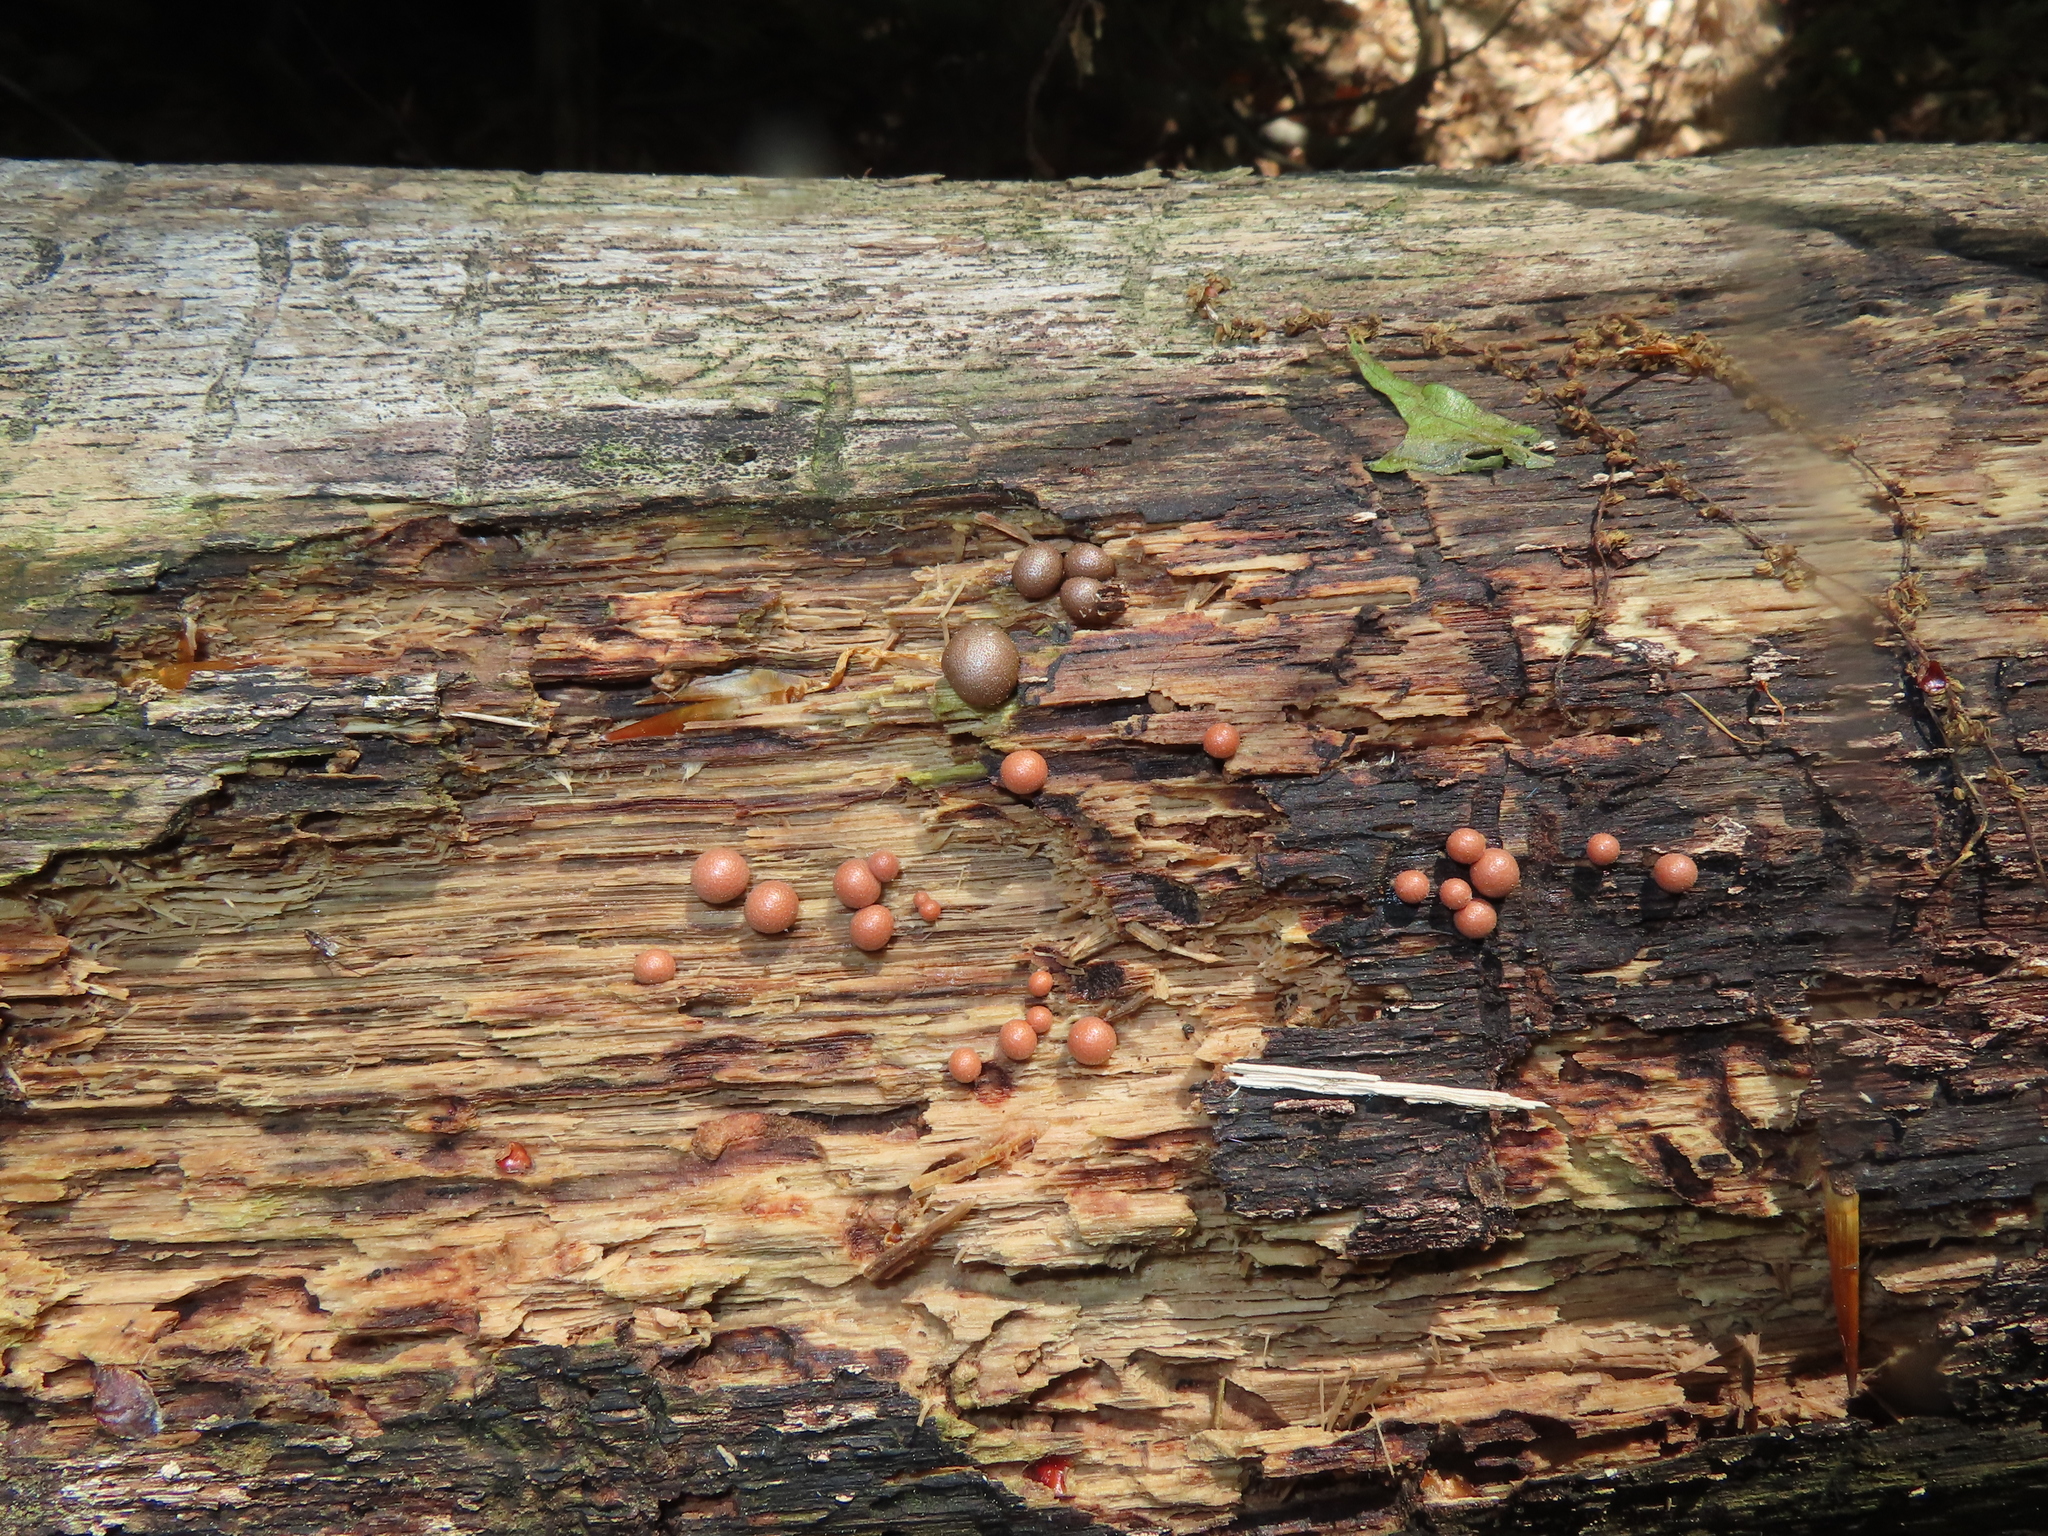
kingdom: Protozoa
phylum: Mycetozoa
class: Myxomycetes
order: Cribrariales
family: Tubiferaceae
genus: Lycogala
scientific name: Lycogala epidendrum
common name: Wolf's milk
